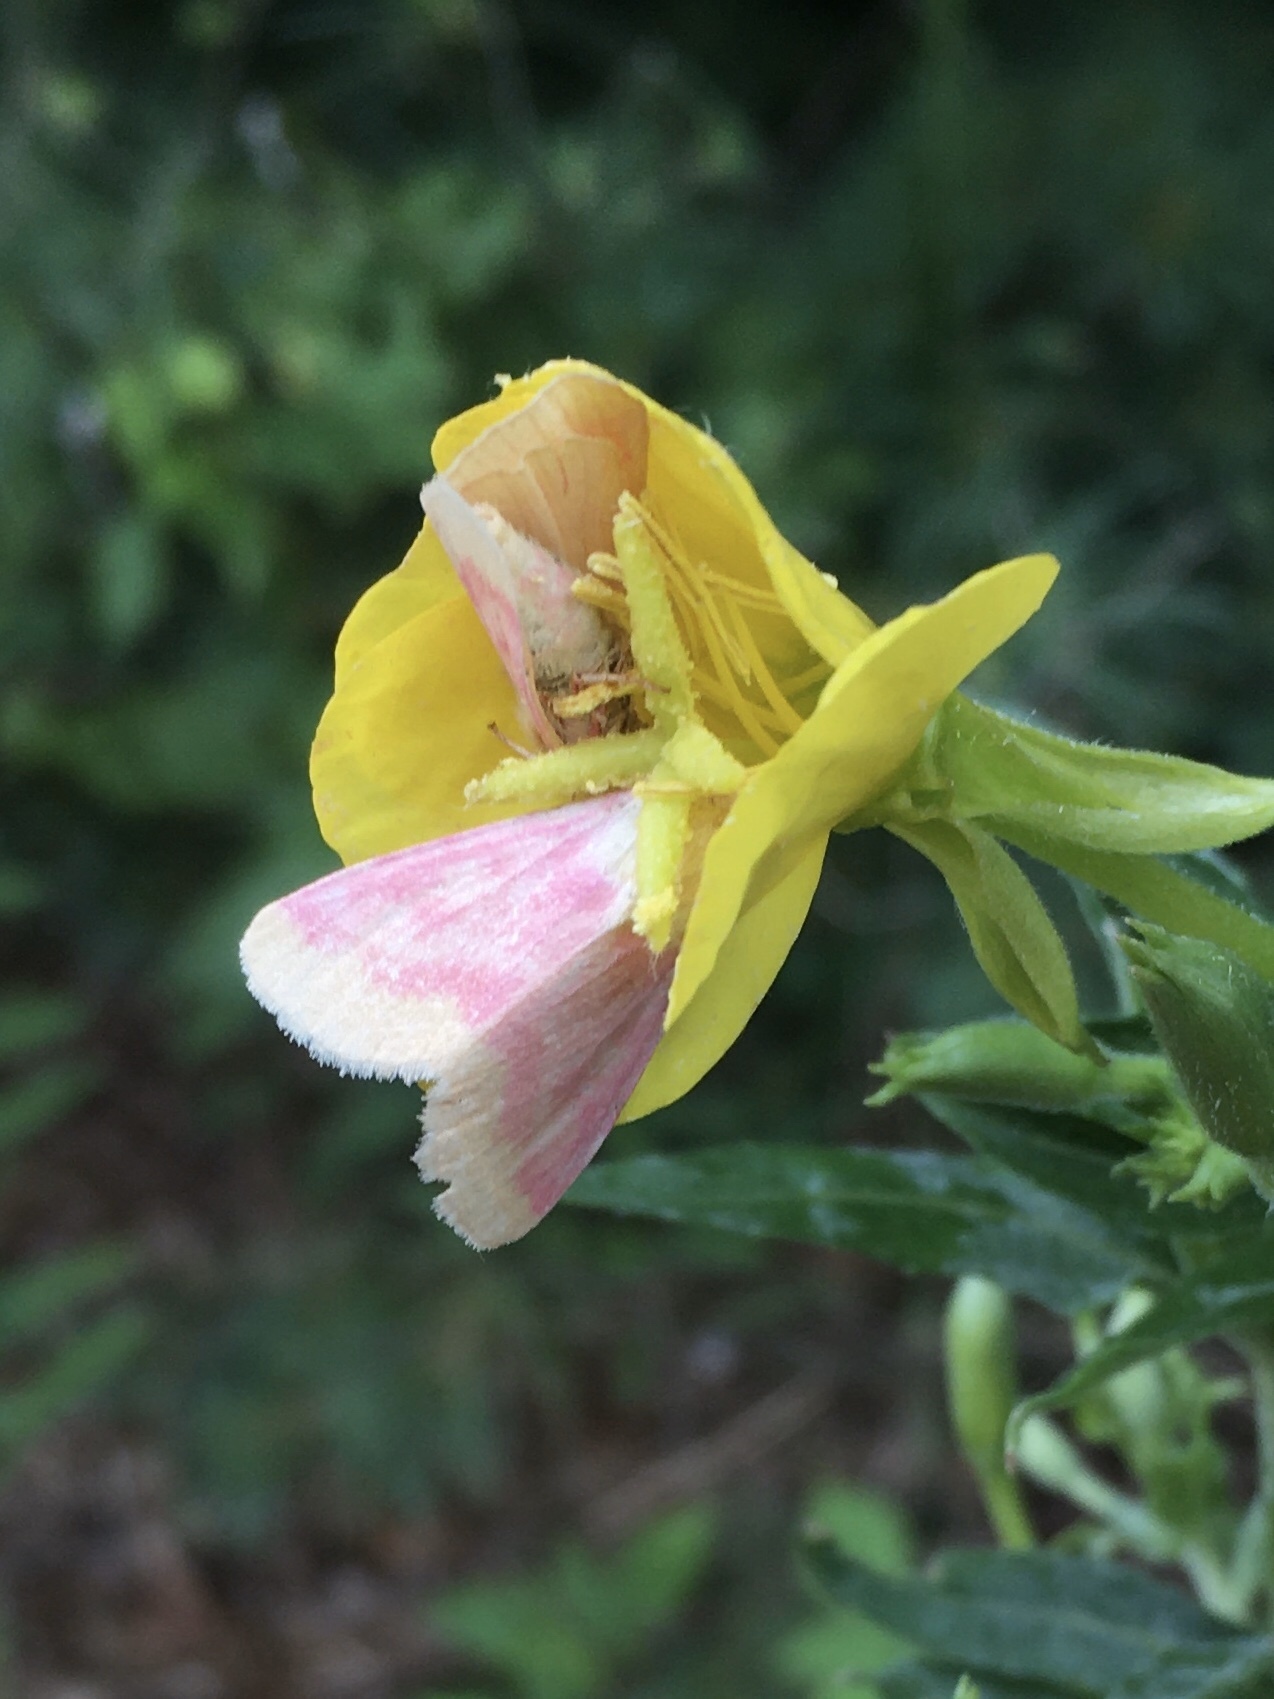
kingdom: Animalia
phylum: Arthropoda
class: Insecta
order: Lepidoptera
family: Noctuidae
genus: Schinia
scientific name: Schinia florida
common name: Primrose moth
